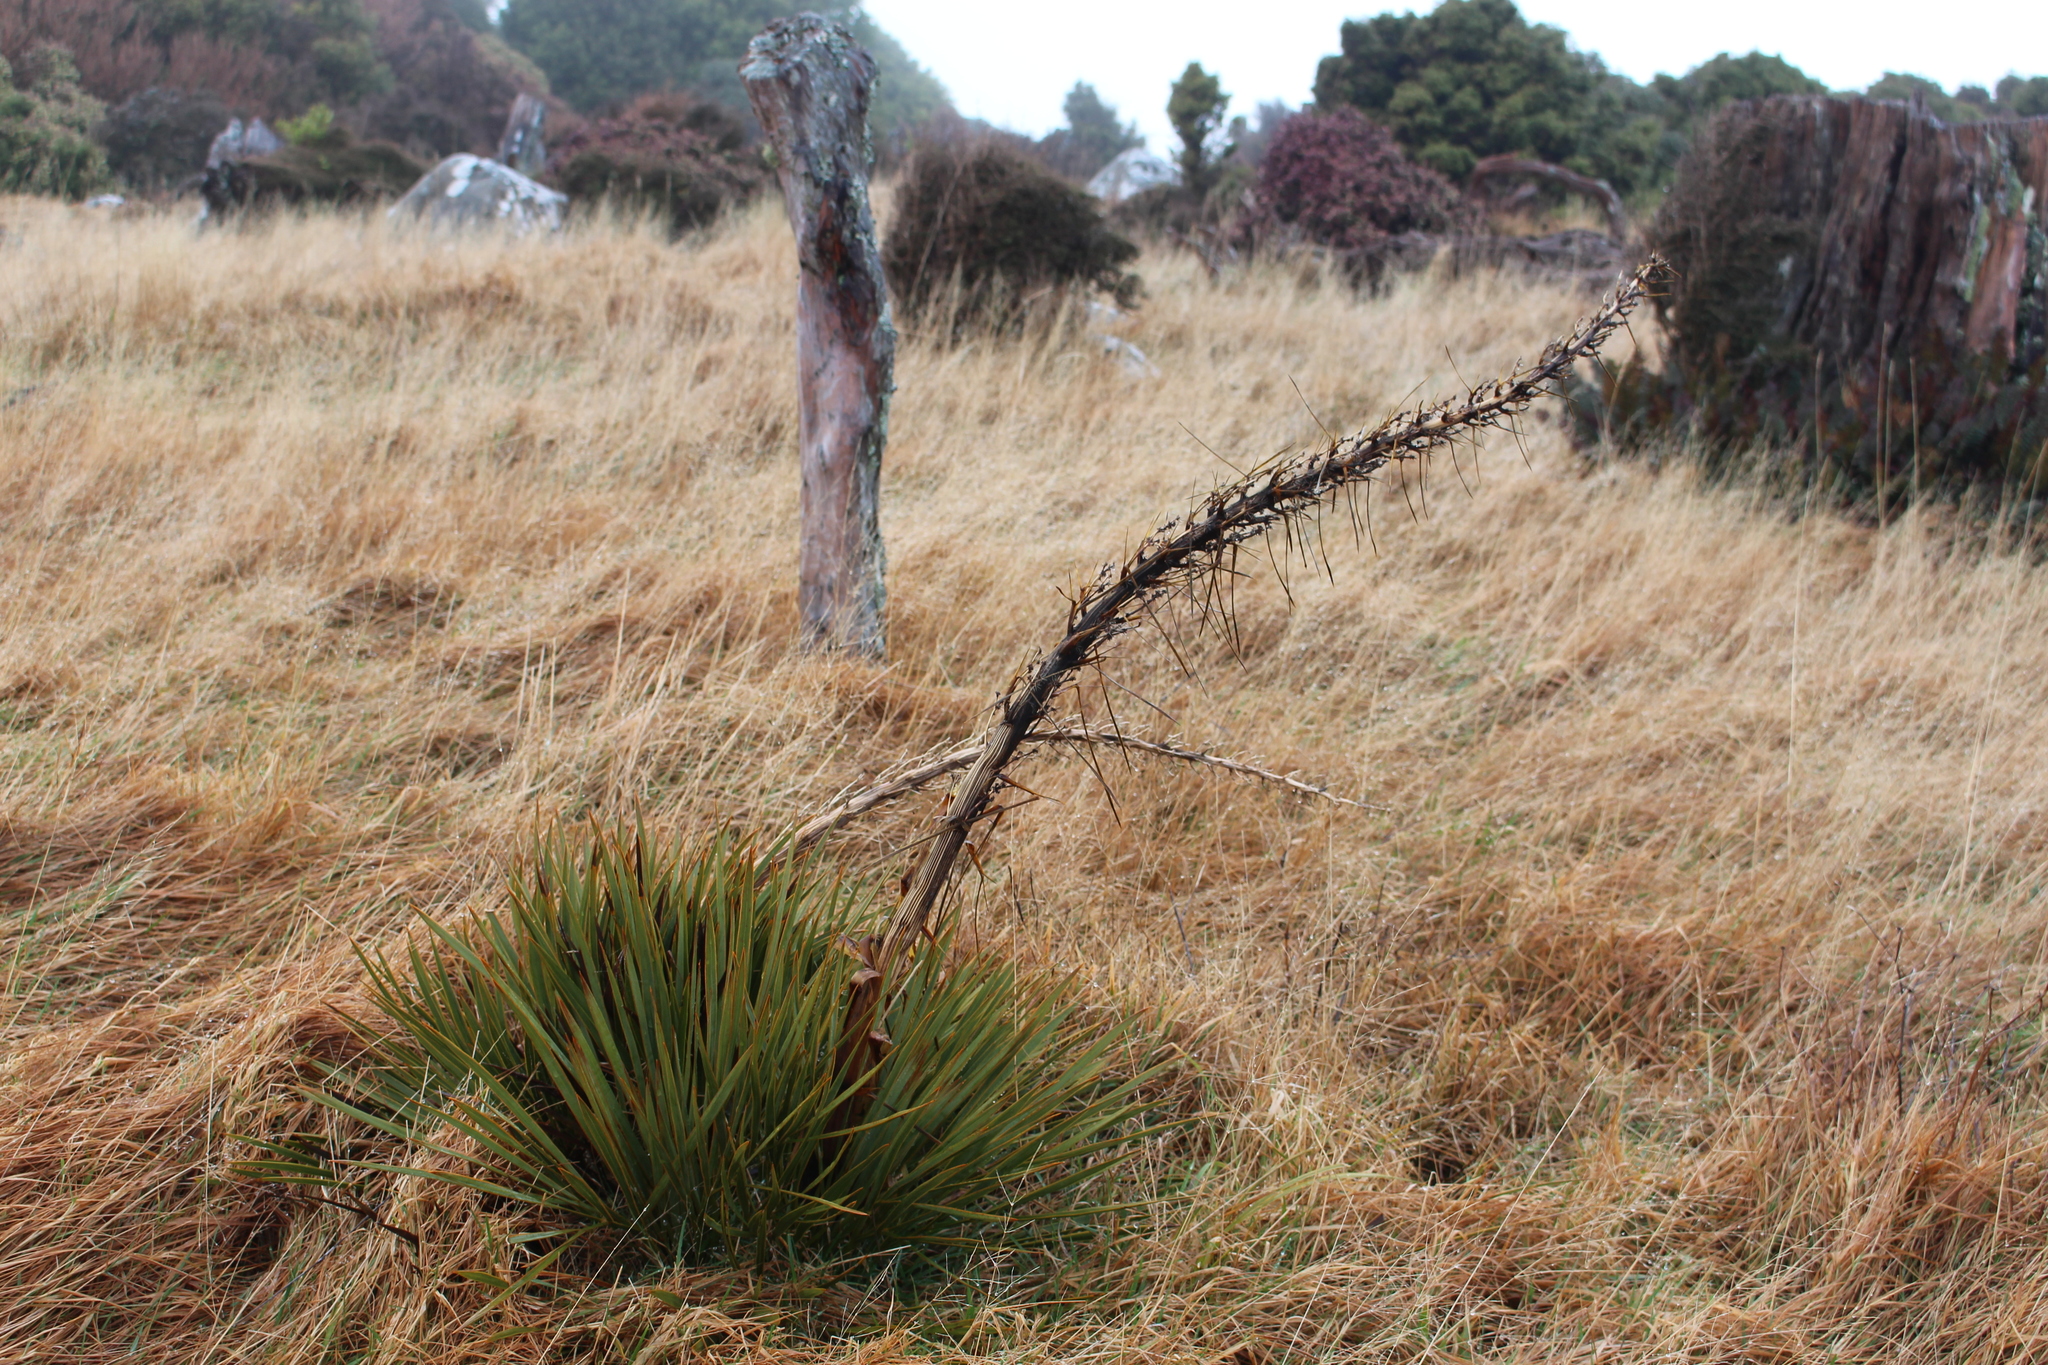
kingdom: Plantae
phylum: Tracheophyta
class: Magnoliopsida
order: Apiales
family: Apiaceae
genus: Aciphylla
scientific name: Aciphylla aurea
